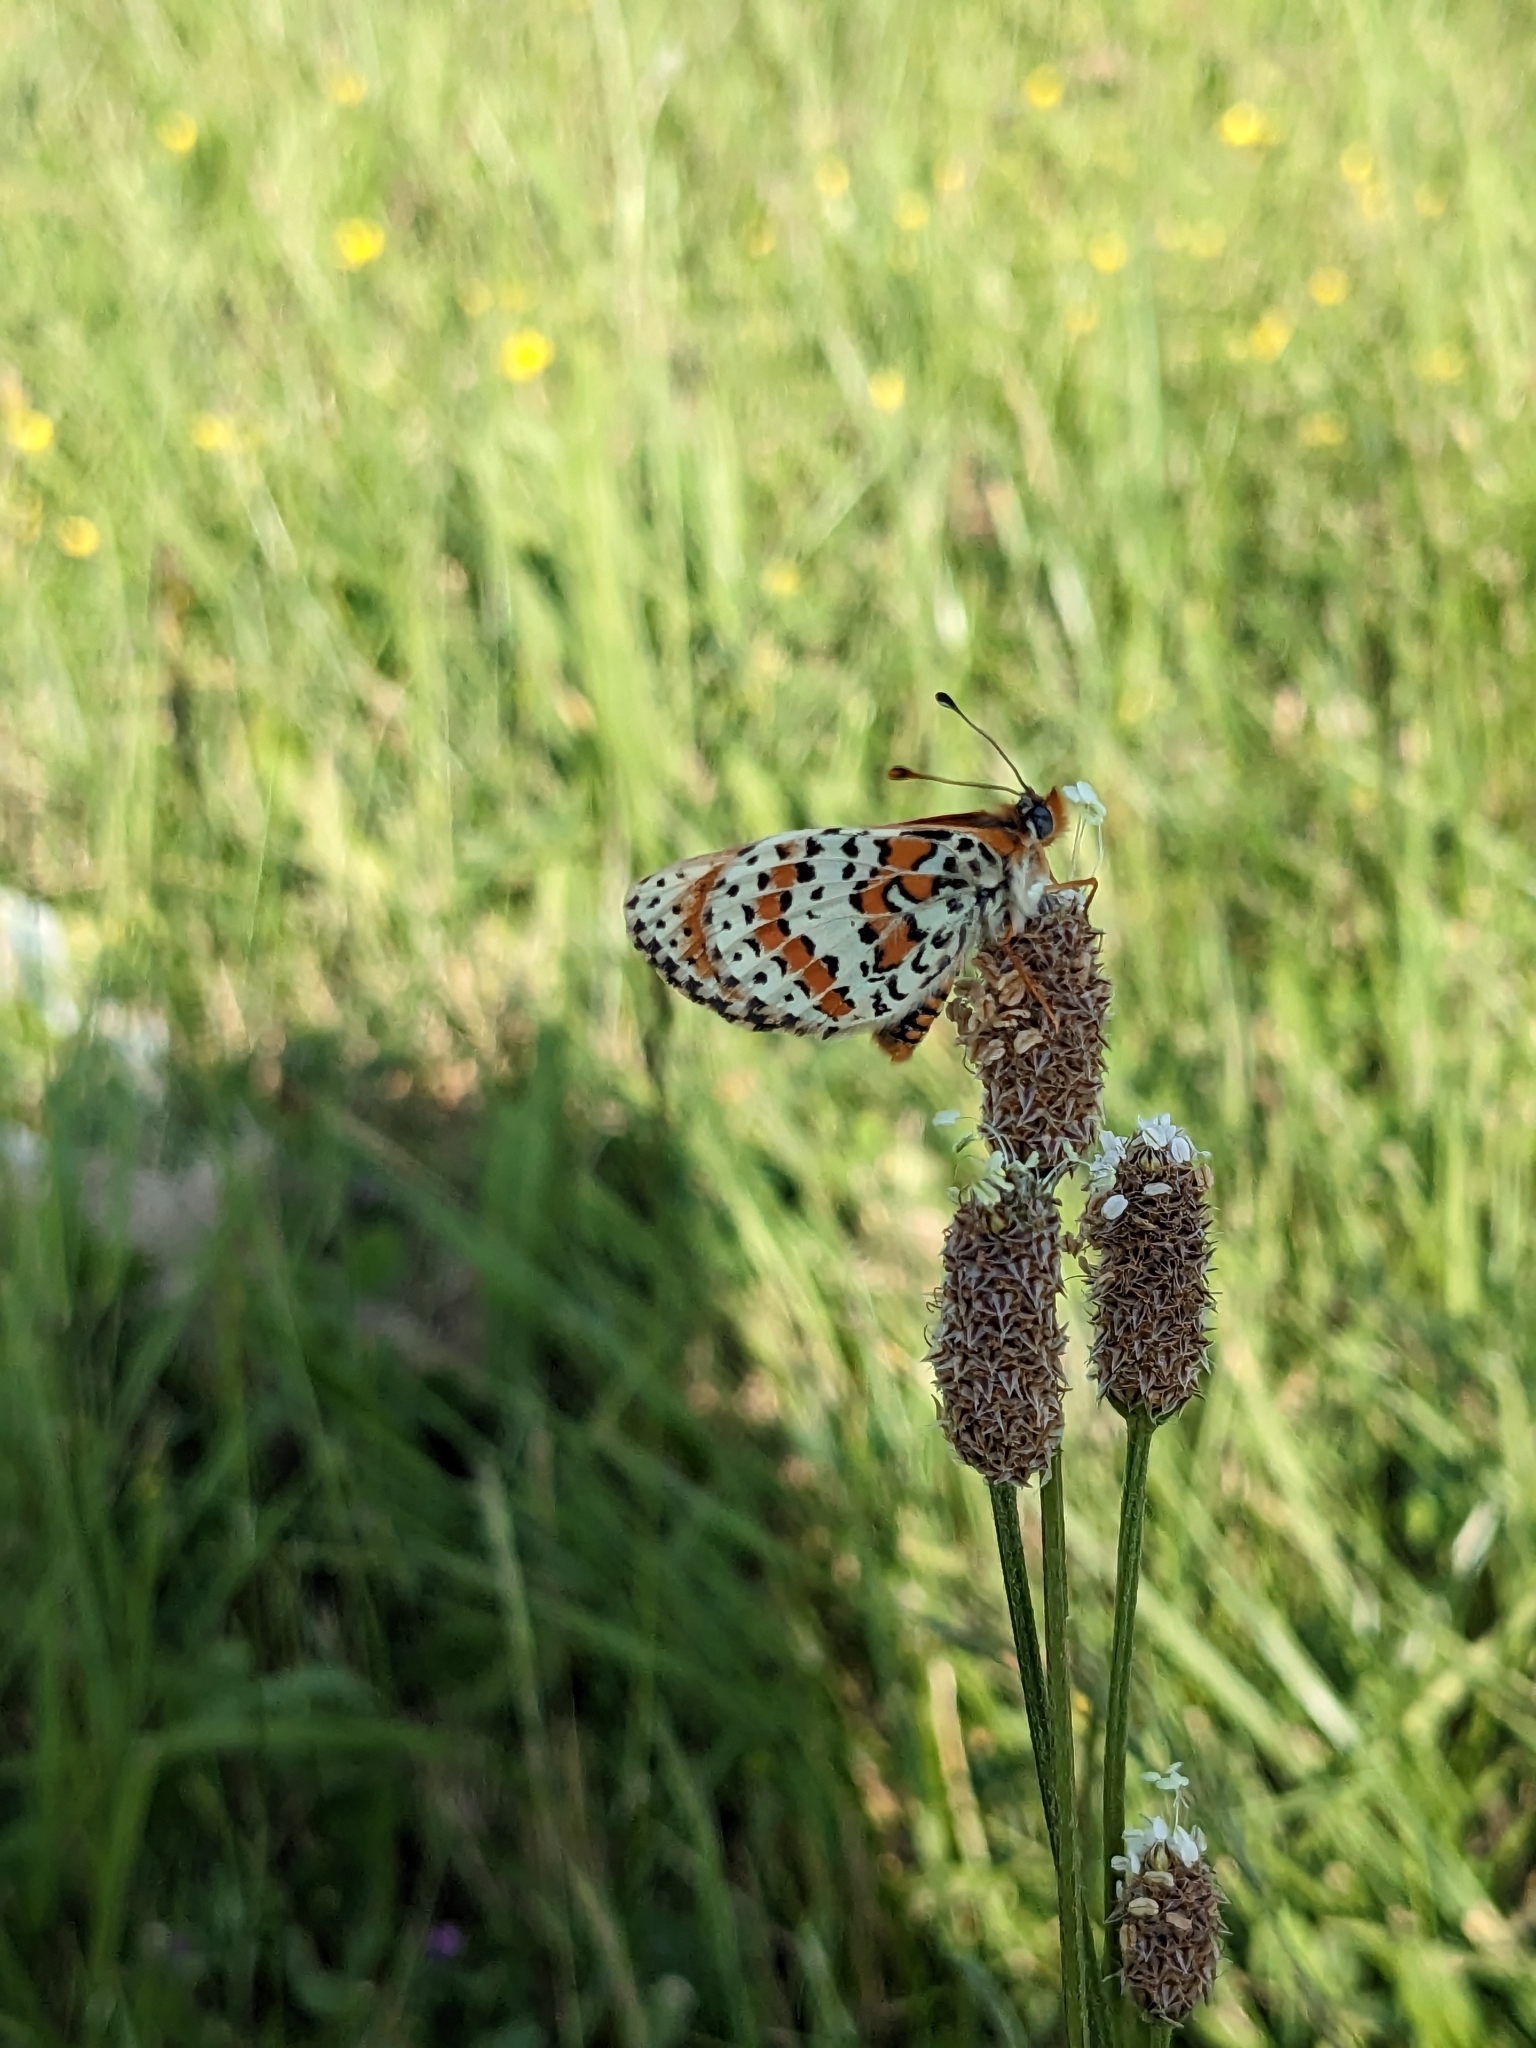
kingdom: Animalia
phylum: Arthropoda
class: Insecta
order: Lepidoptera
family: Nymphalidae
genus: Melitaea
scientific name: Melitaea didyma
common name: Spotted fritillary
